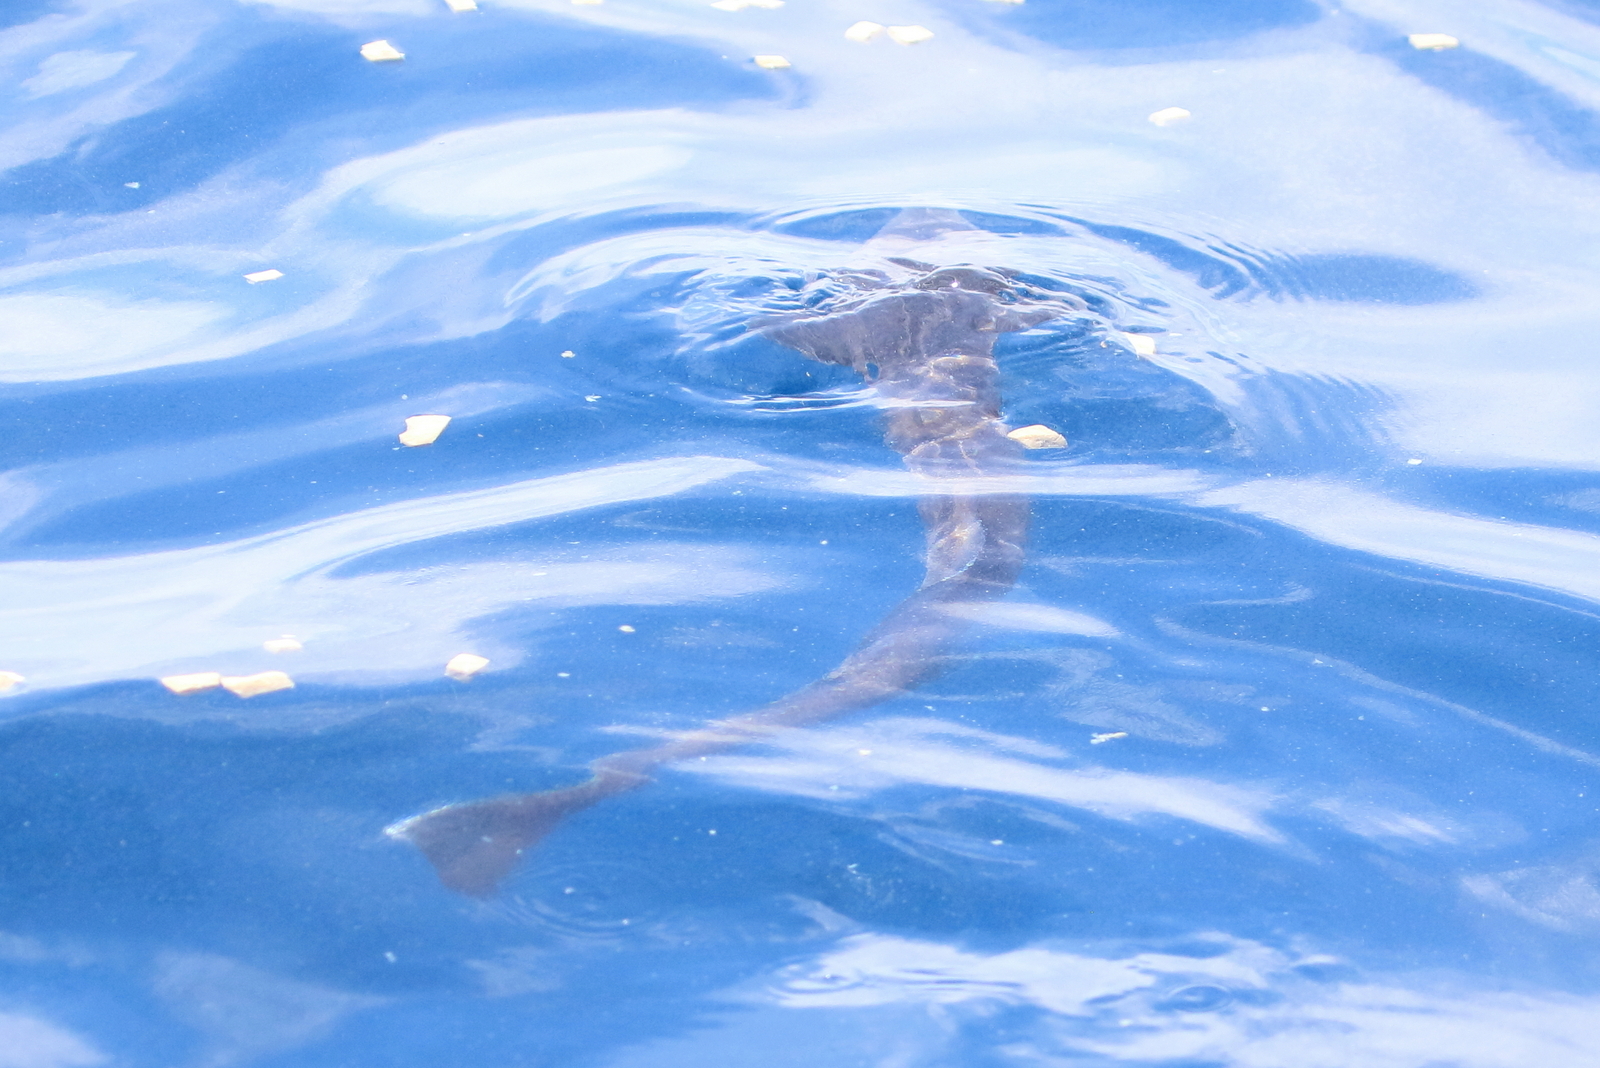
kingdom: Animalia
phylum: Chordata
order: Perciformes
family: Echeneidae
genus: Echeneis
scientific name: Echeneis naucrates
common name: Sharksucker
